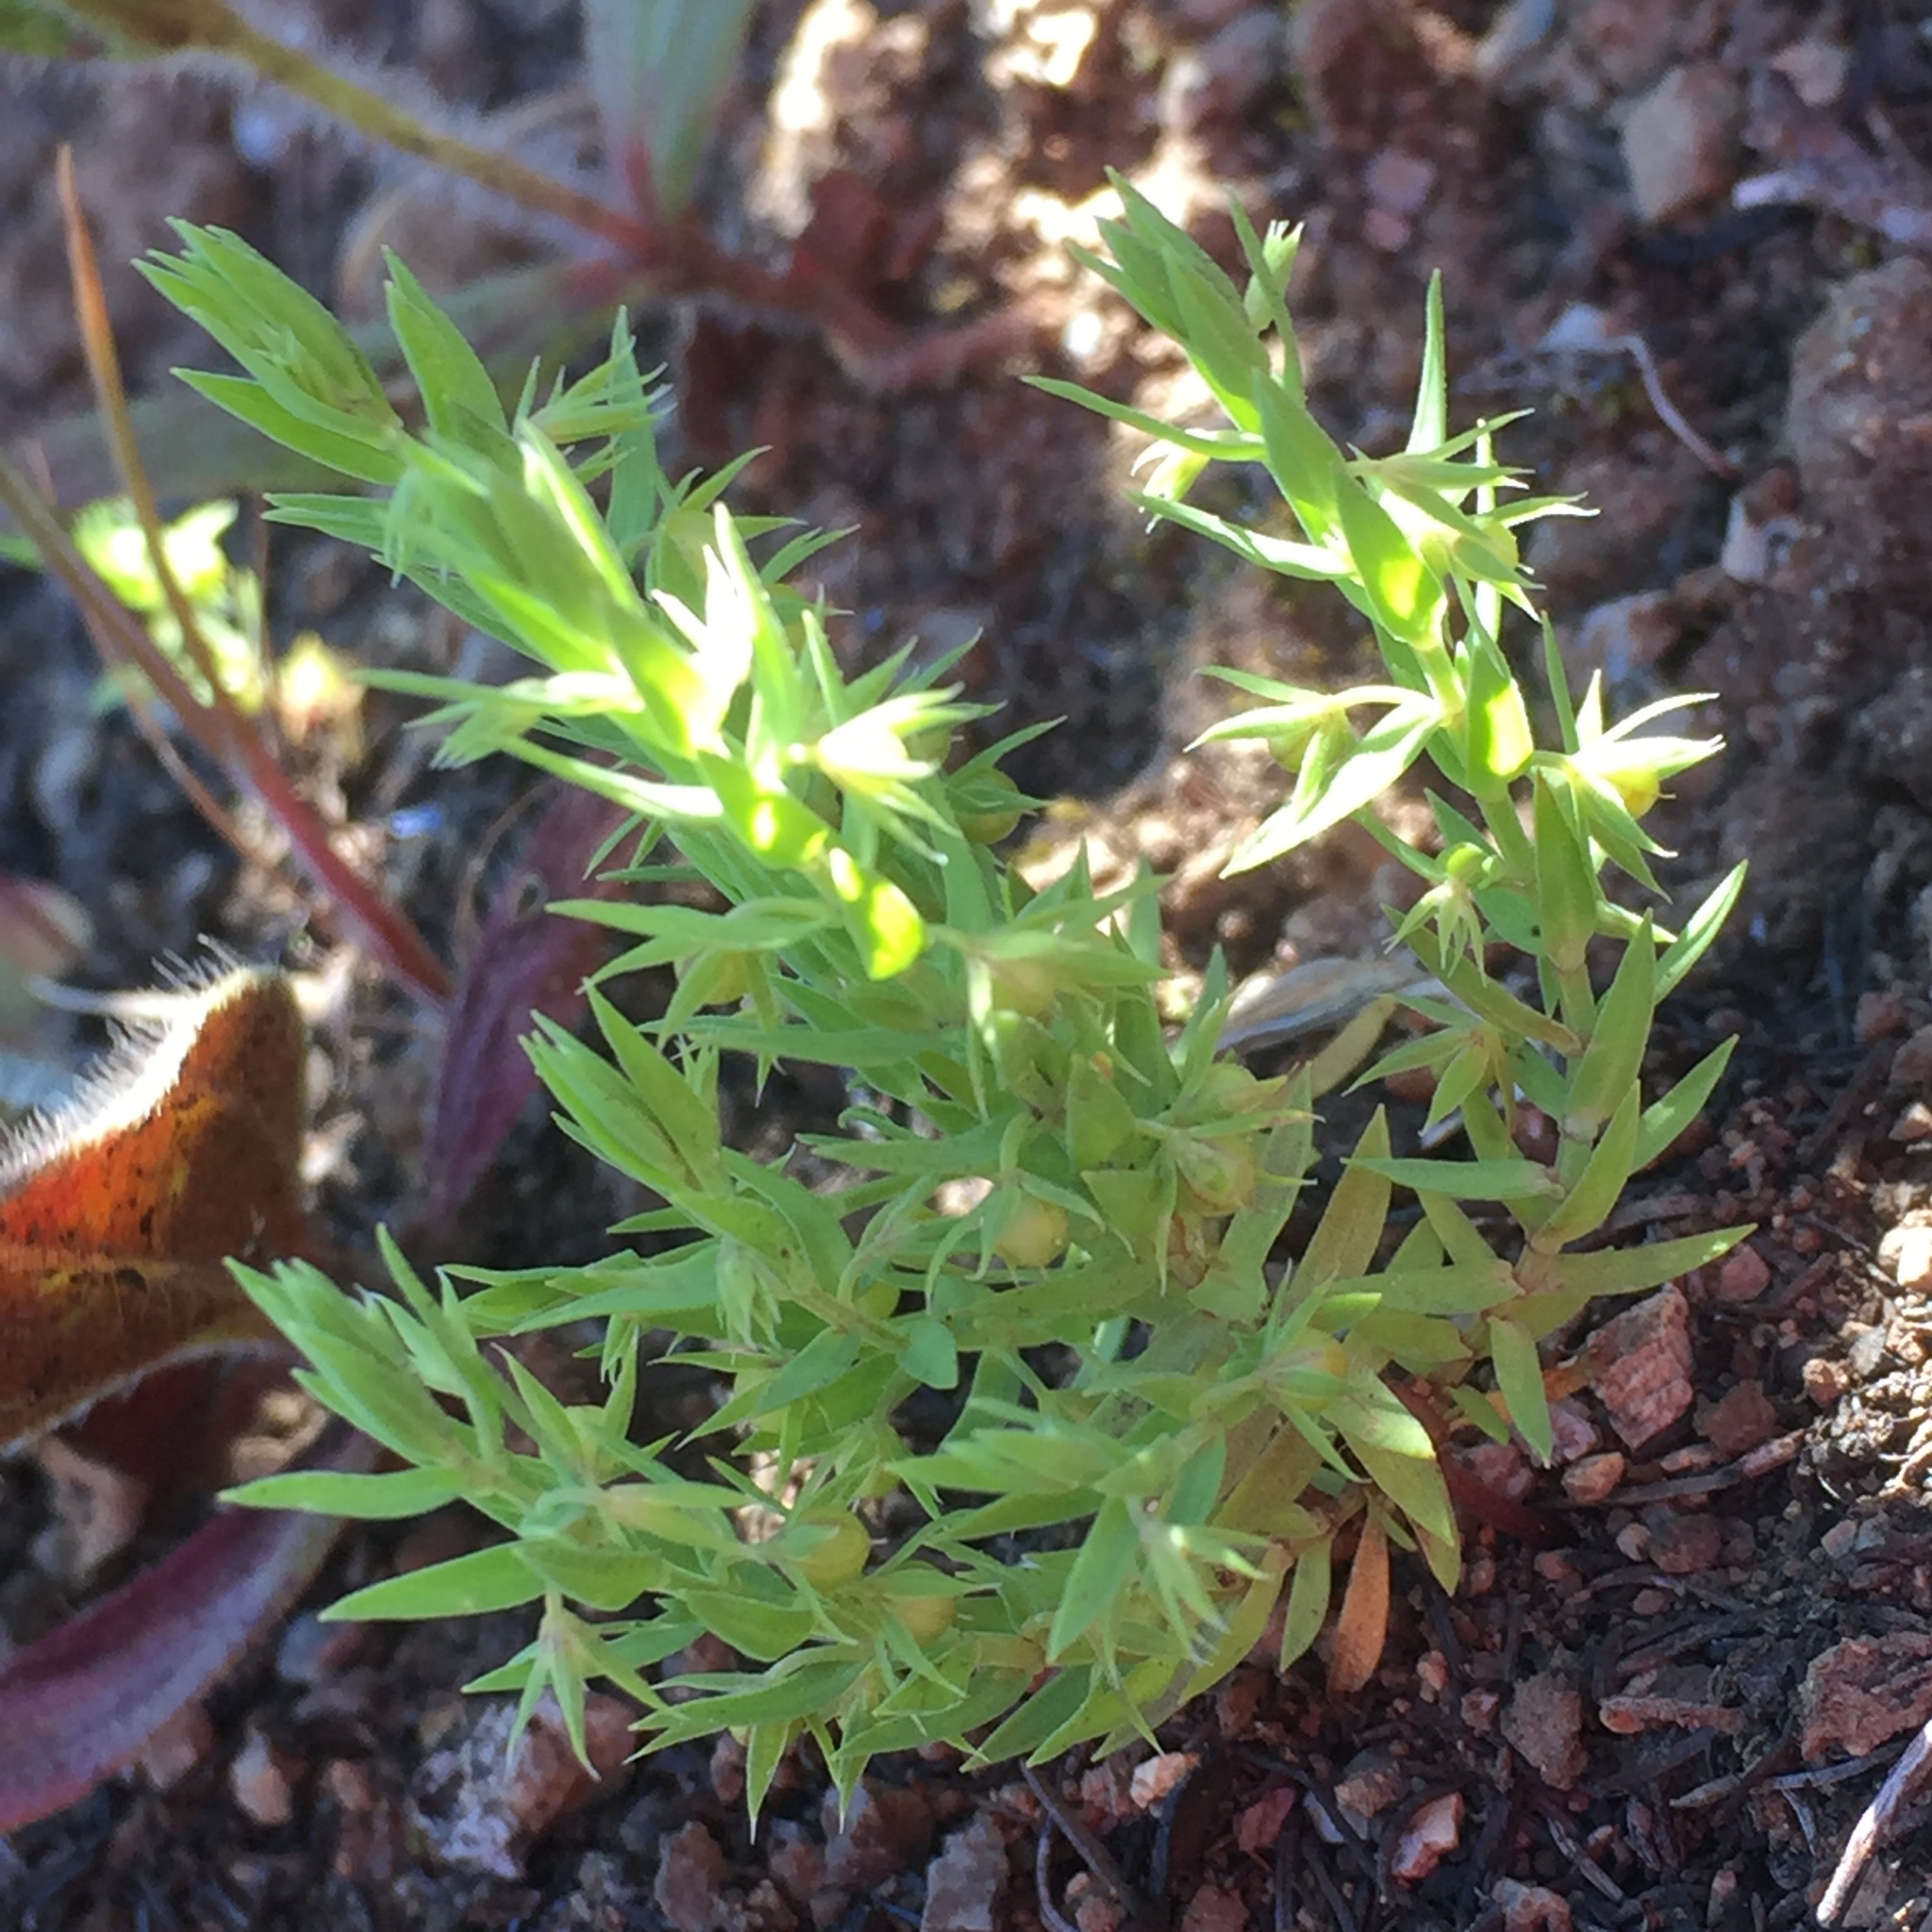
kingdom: Plantae
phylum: Tracheophyta
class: Magnoliopsida
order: Ericales
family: Primulaceae
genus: Lysimachia
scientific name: Lysimachia linum-stellatum
